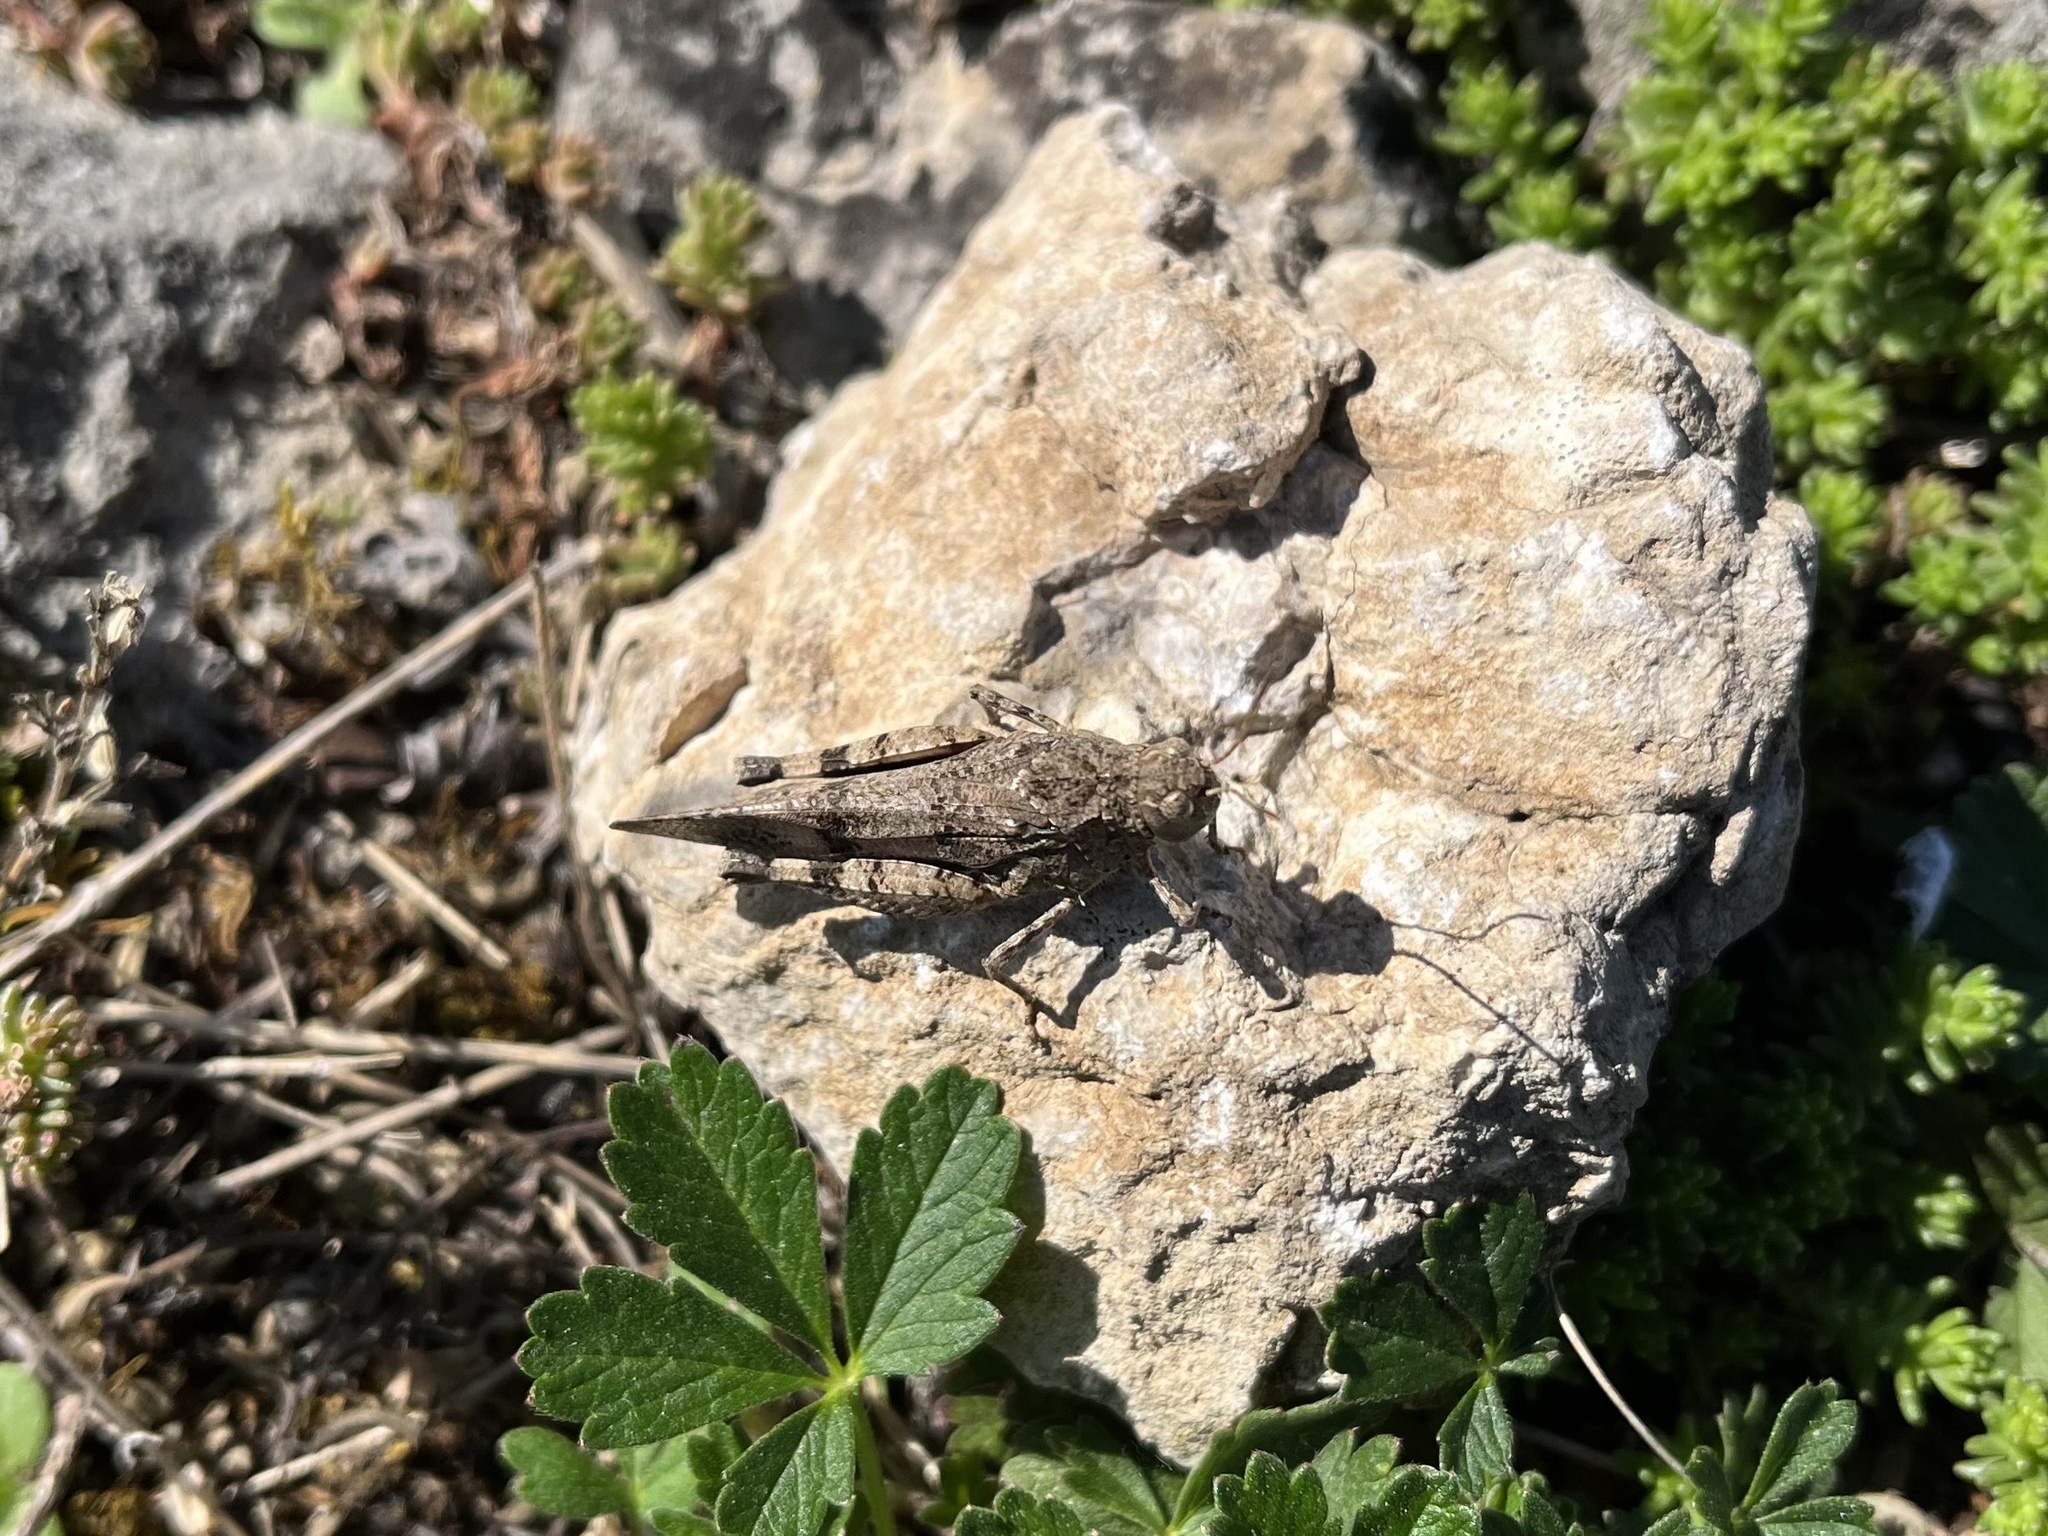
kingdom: Animalia
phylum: Arthropoda
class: Insecta
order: Orthoptera
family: Acrididae
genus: Oedipoda
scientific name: Oedipoda caerulescens
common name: Blue-winged grasshopper
